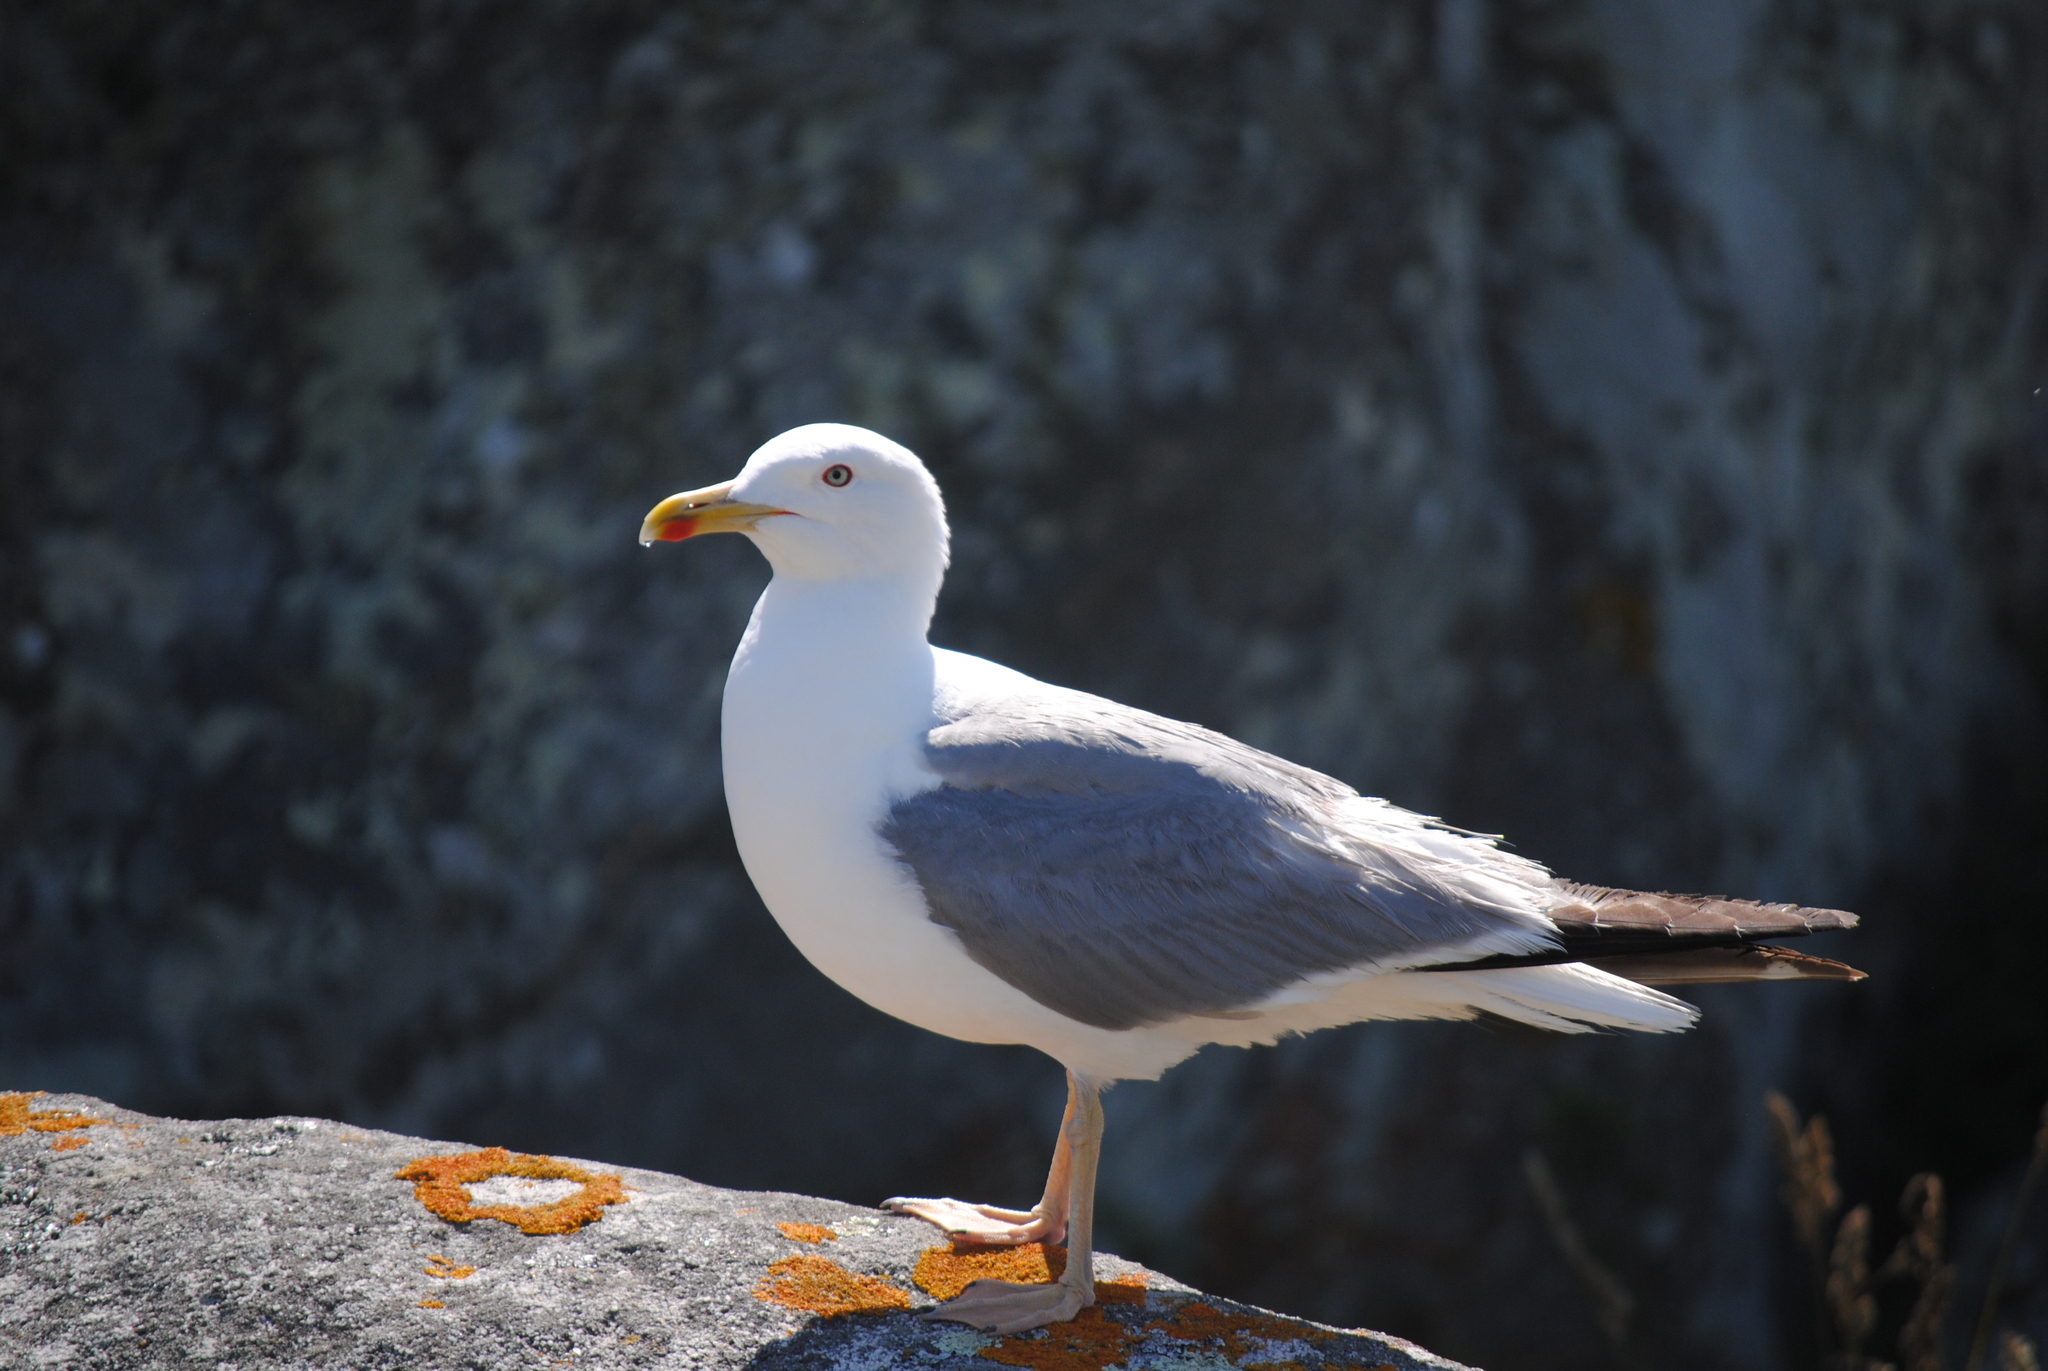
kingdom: Animalia
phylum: Chordata
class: Aves
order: Charadriiformes
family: Laridae
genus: Larus
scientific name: Larus michahellis
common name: Yellow-legged gull
